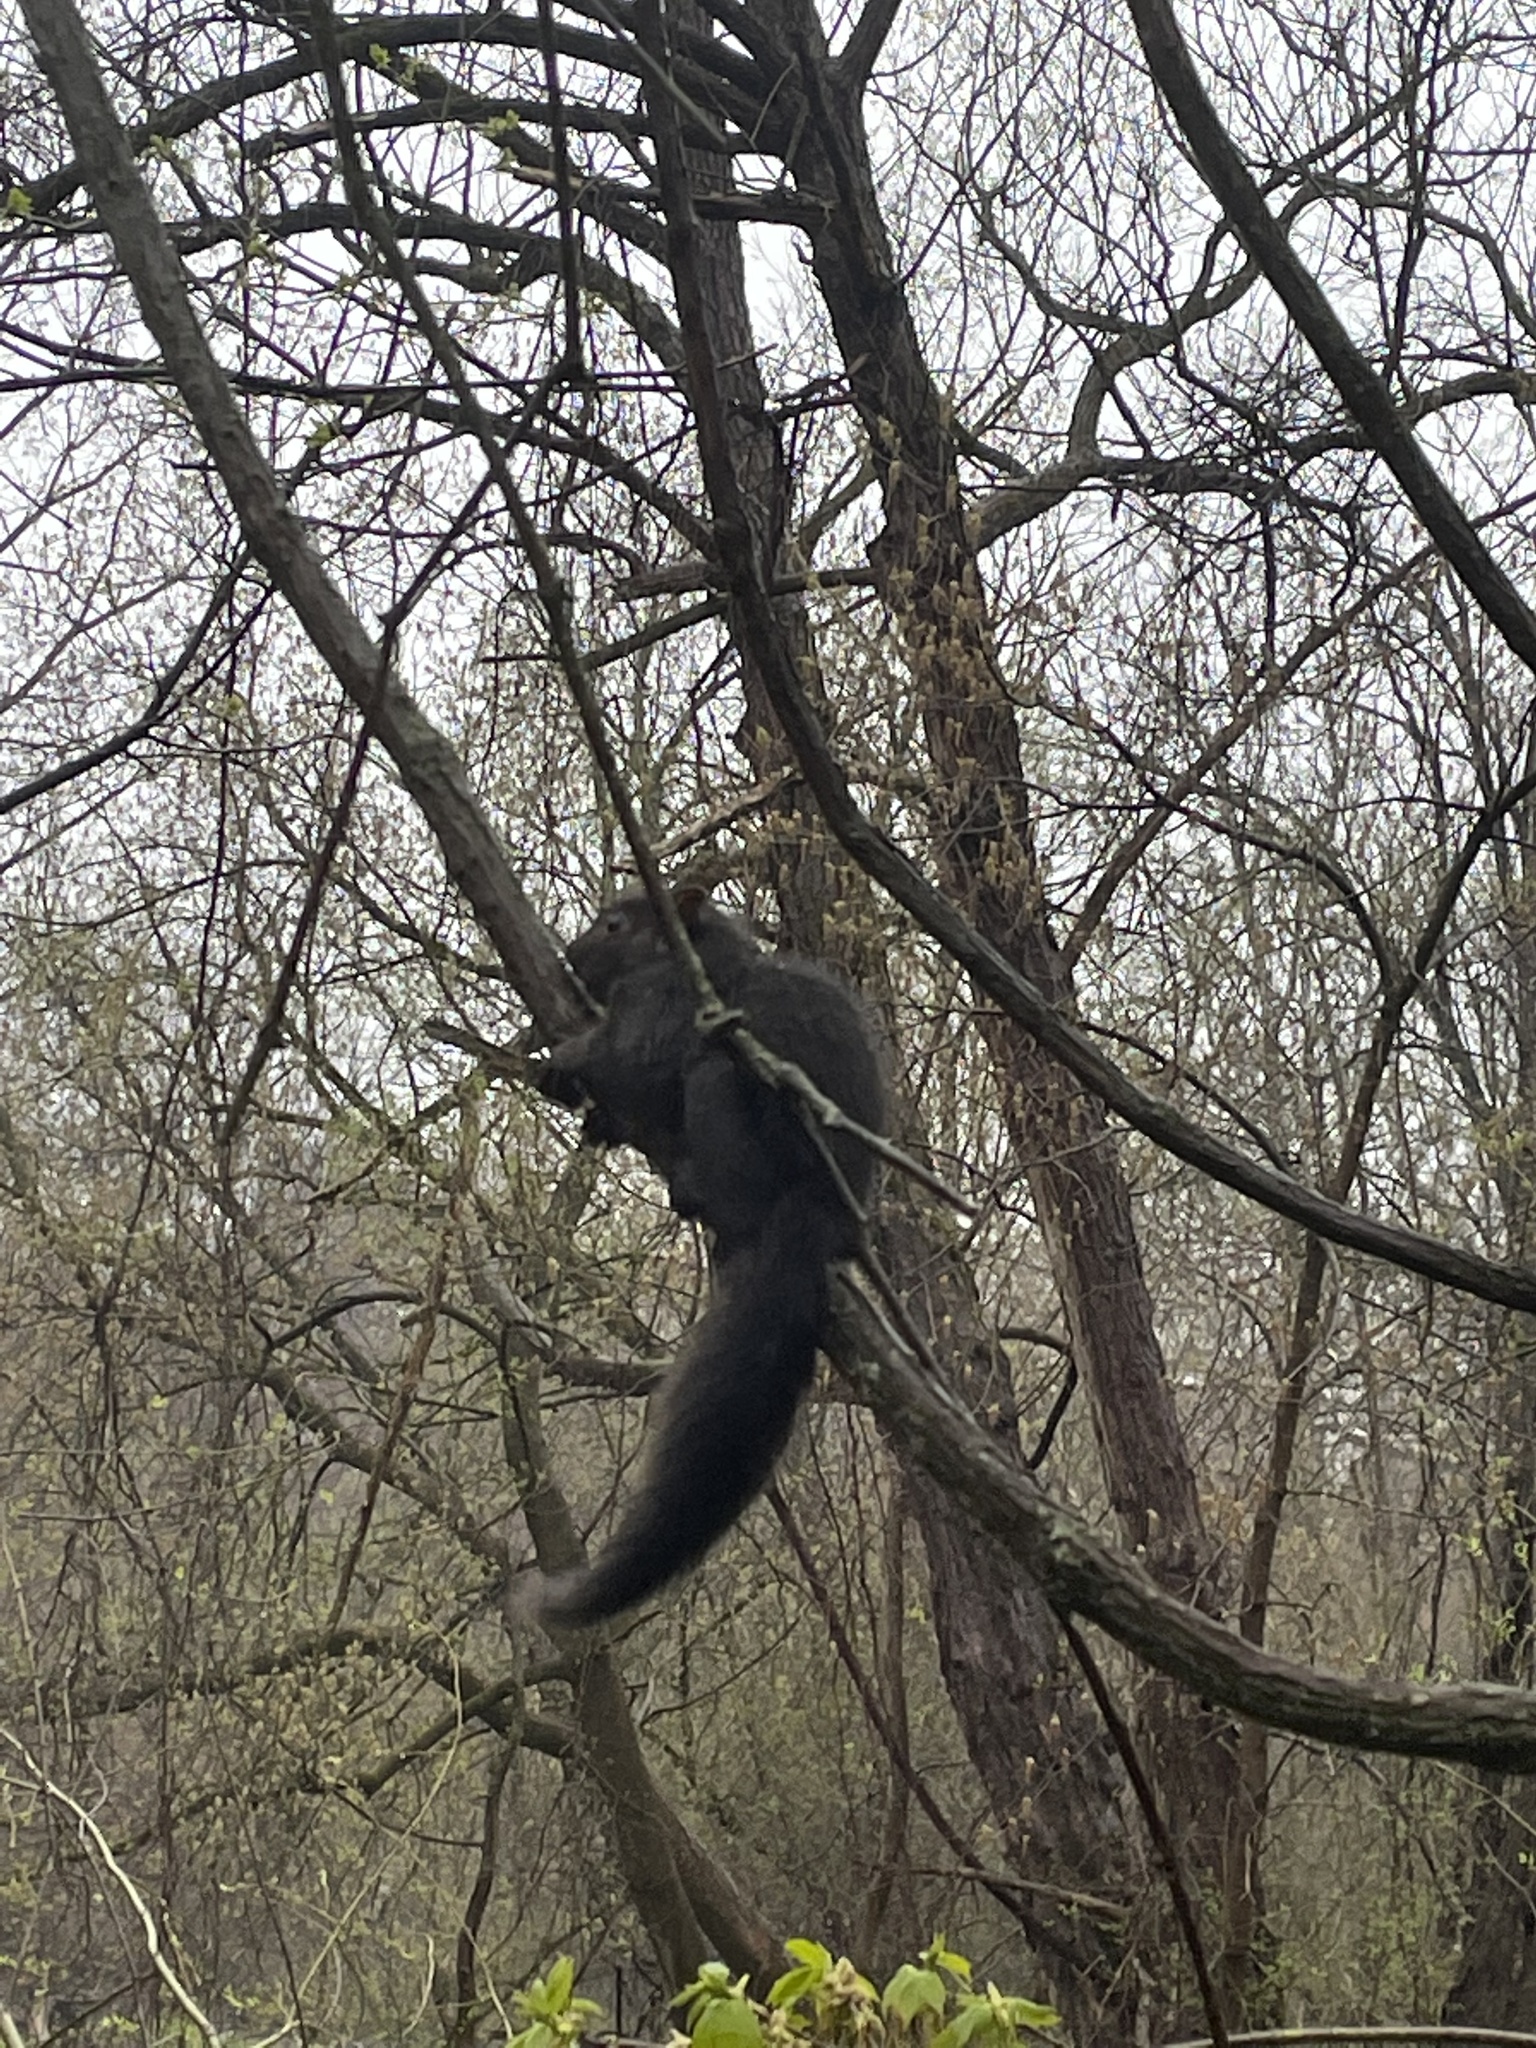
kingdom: Animalia
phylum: Chordata
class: Mammalia
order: Rodentia
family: Sciuridae
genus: Sciurus
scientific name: Sciurus carolinensis
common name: Eastern gray squirrel
